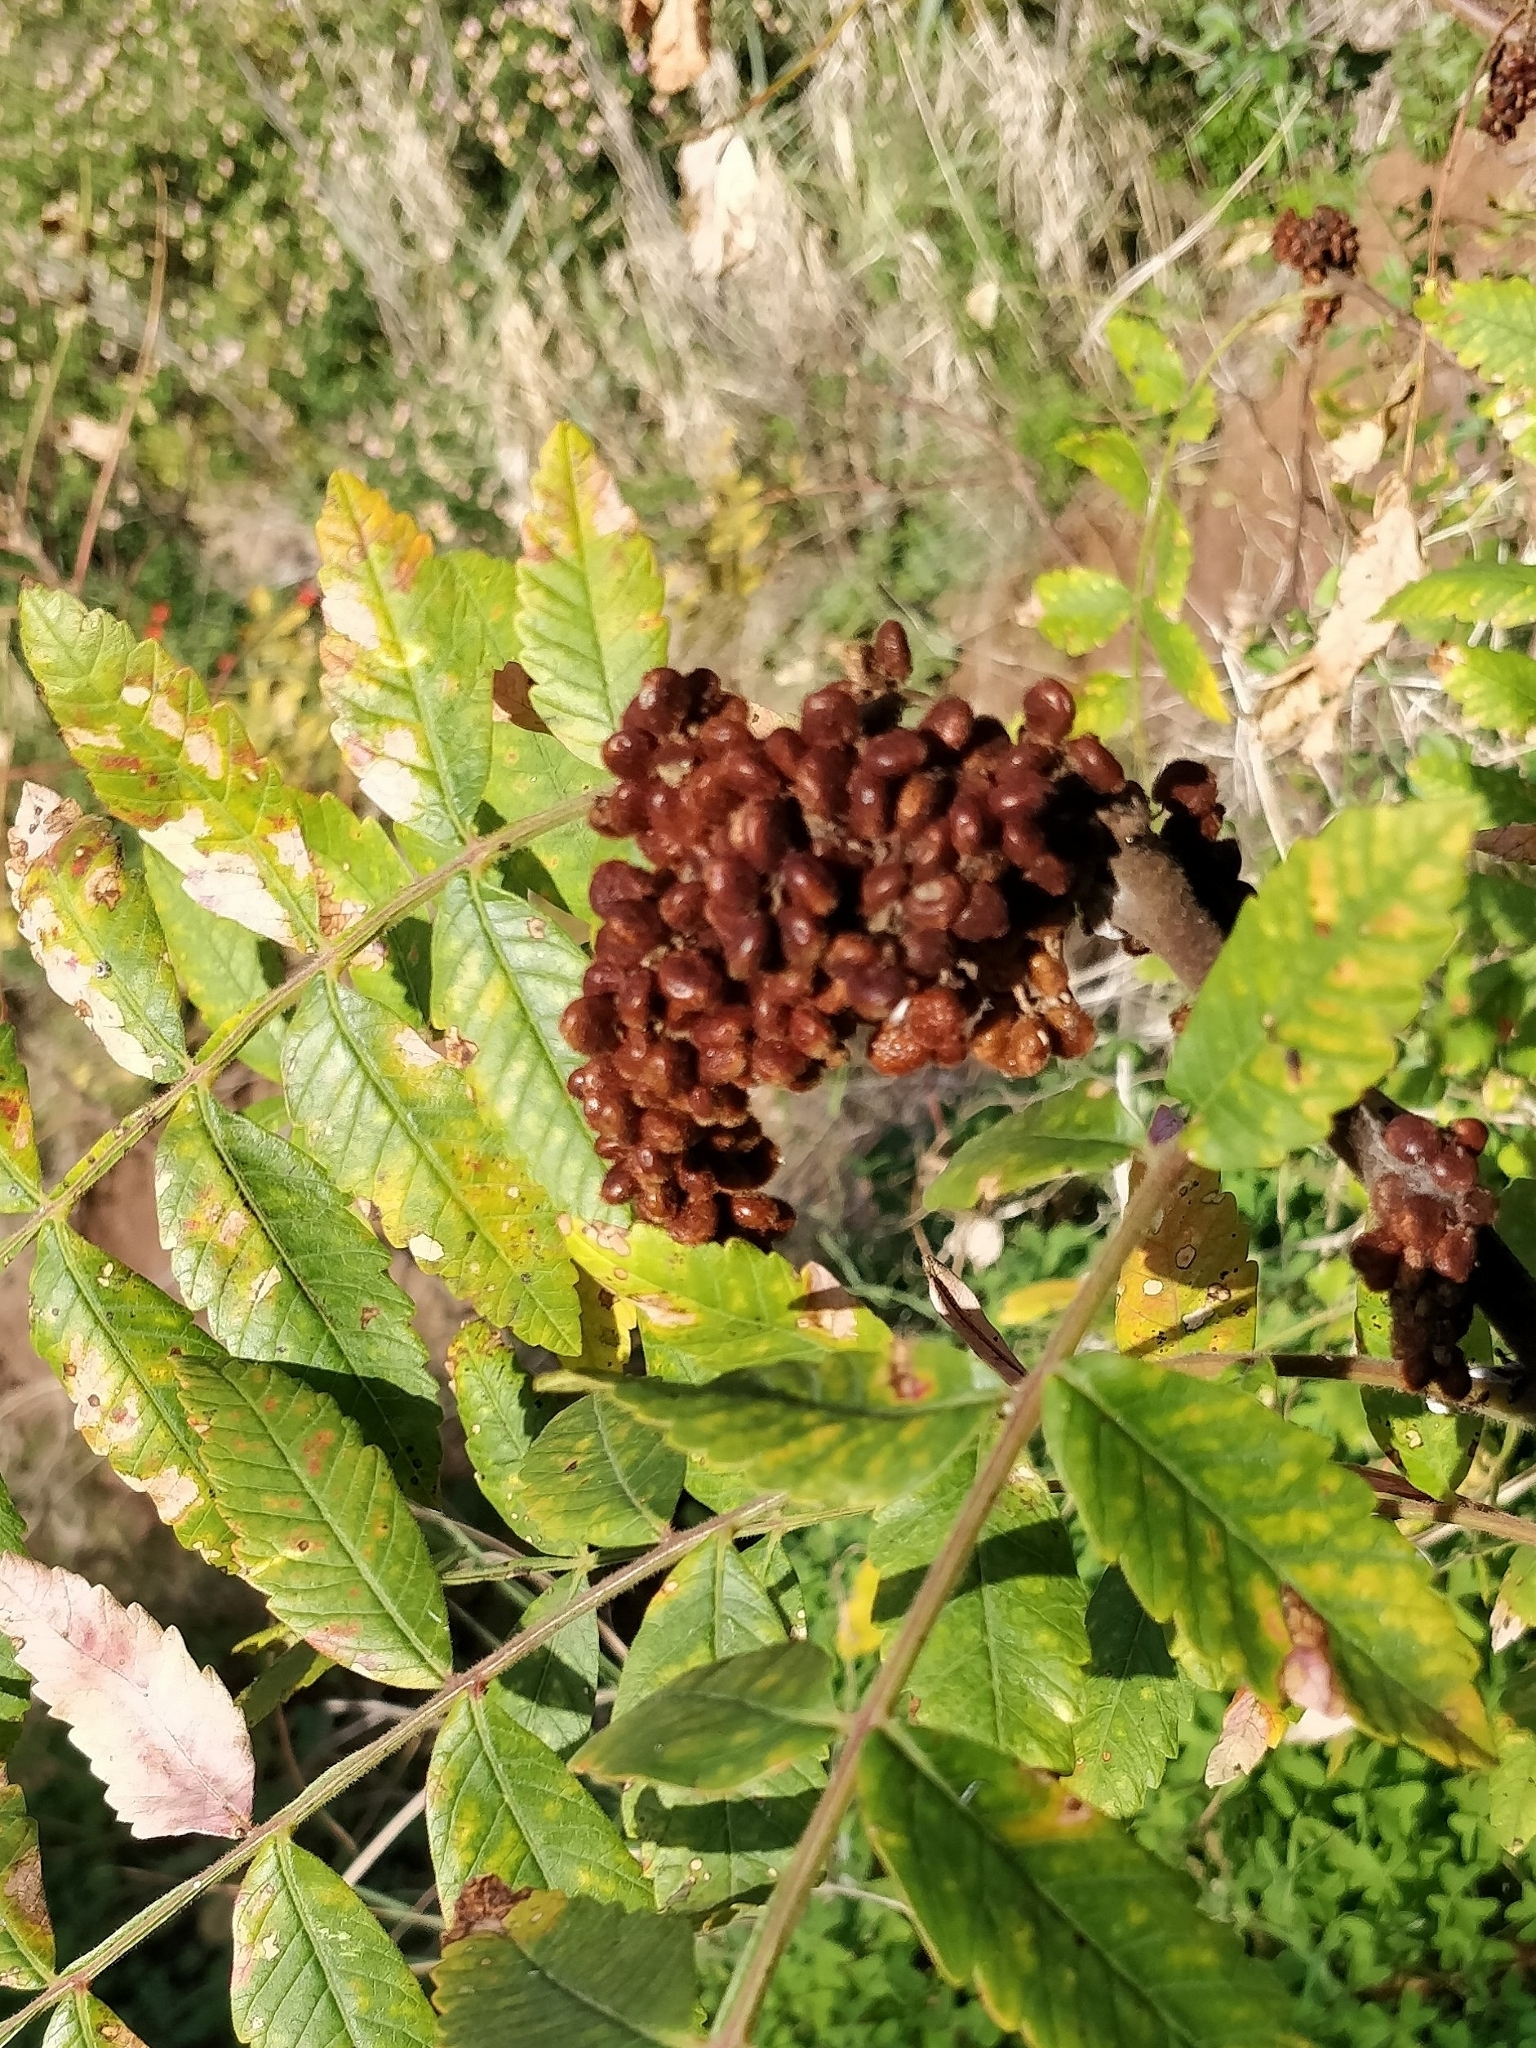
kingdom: Plantae
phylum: Tracheophyta
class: Magnoliopsida
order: Sapindales
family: Anacardiaceae
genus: Rhus
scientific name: Rhus coriaria
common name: Tanner's sumach
